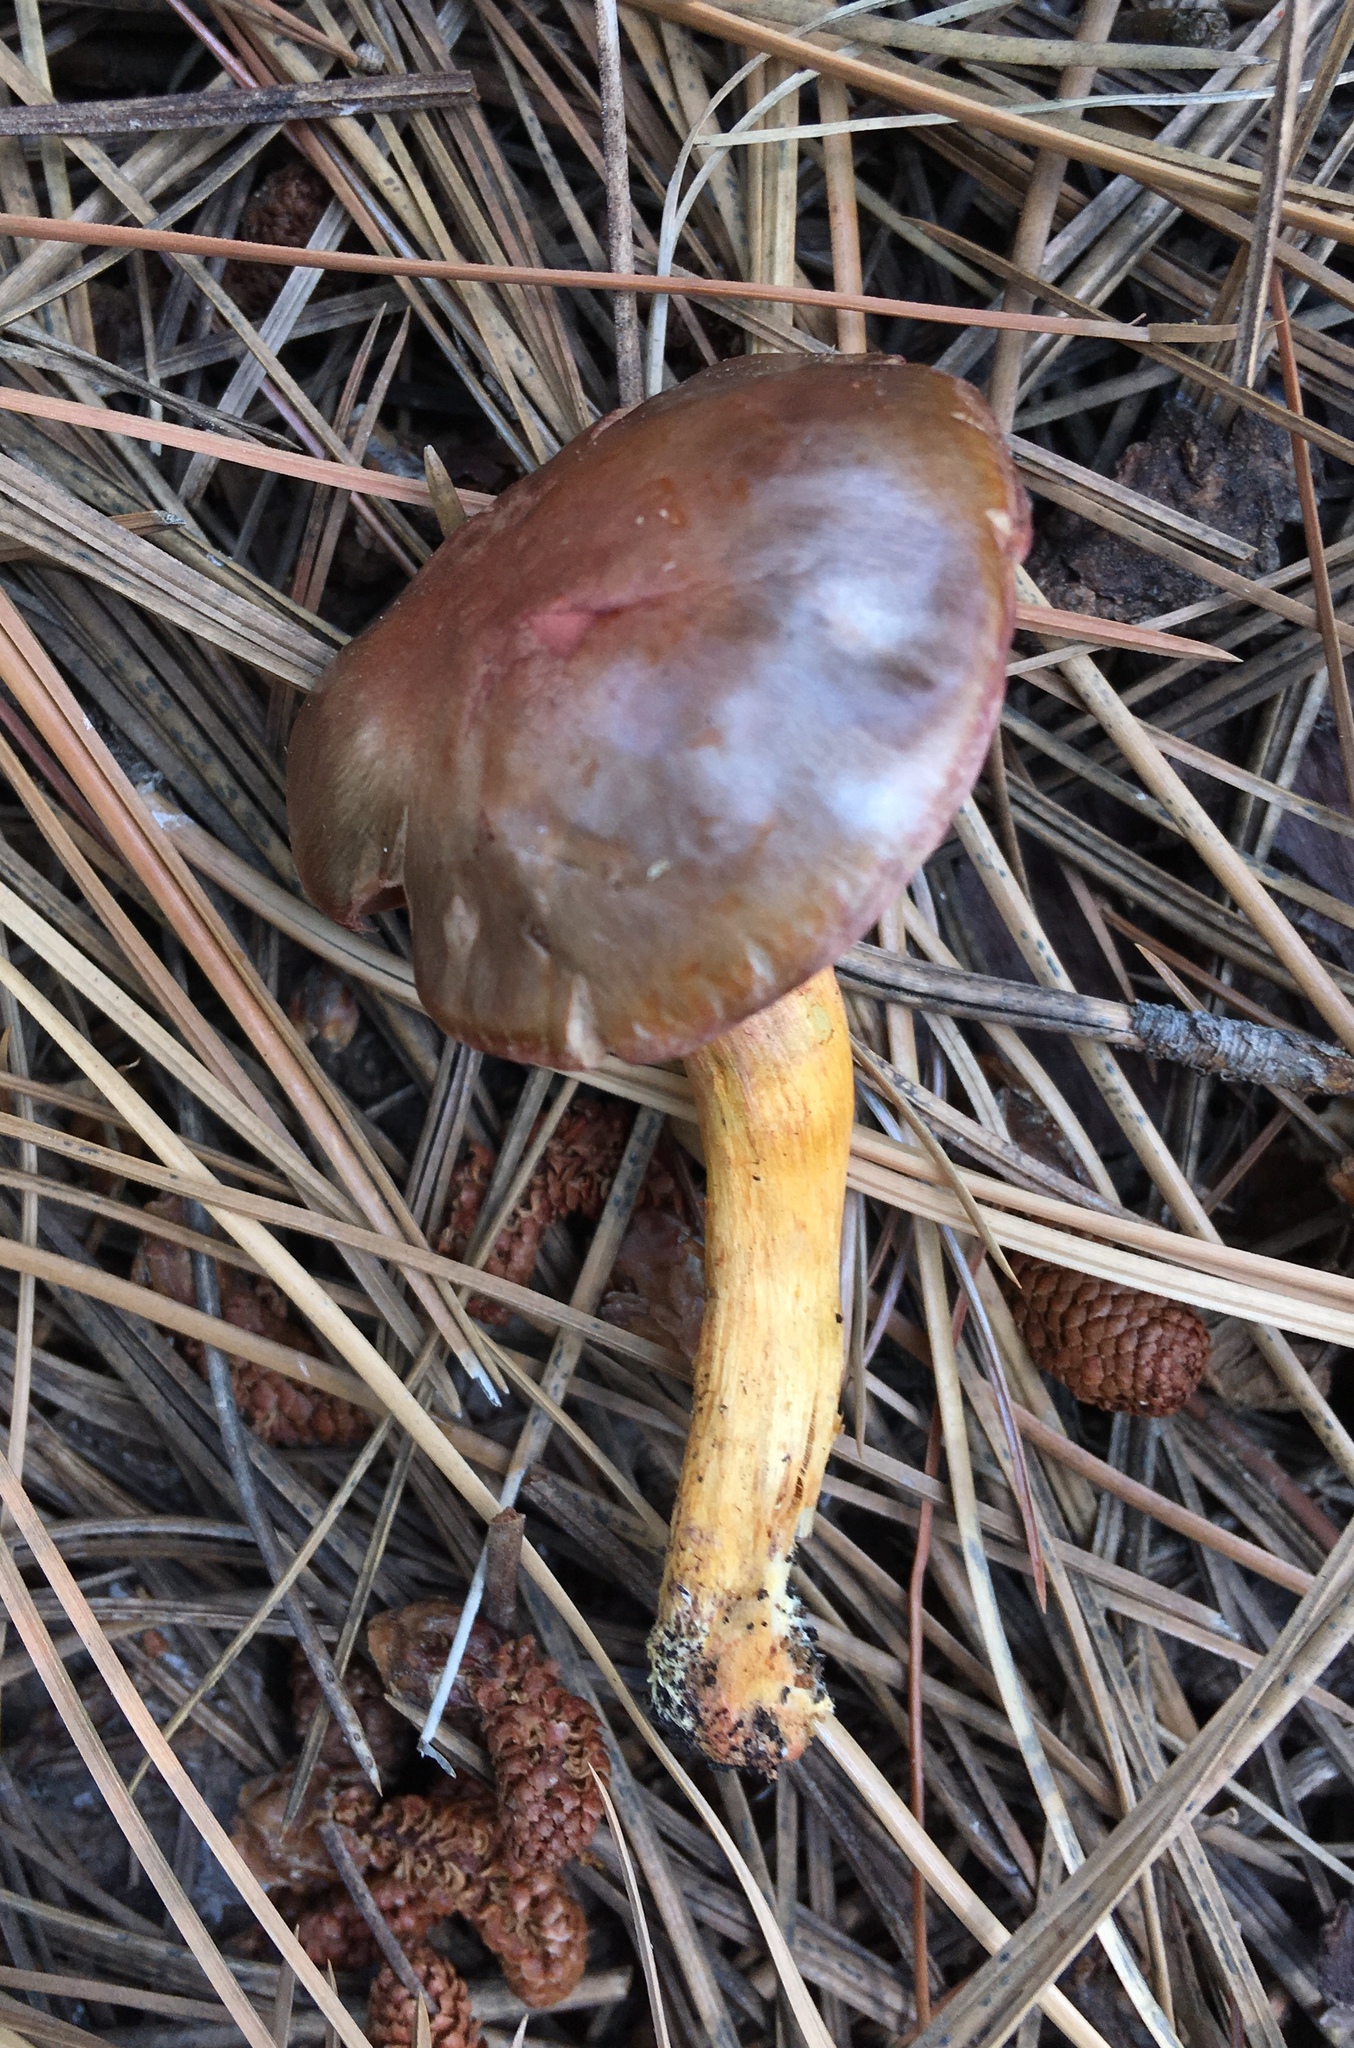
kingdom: Fungi
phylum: Basidiomycota
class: Agaricomycetes
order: Boletales
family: Gomphidiaceae
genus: Chroogomphus
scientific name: Chroogomphus vinicolor
